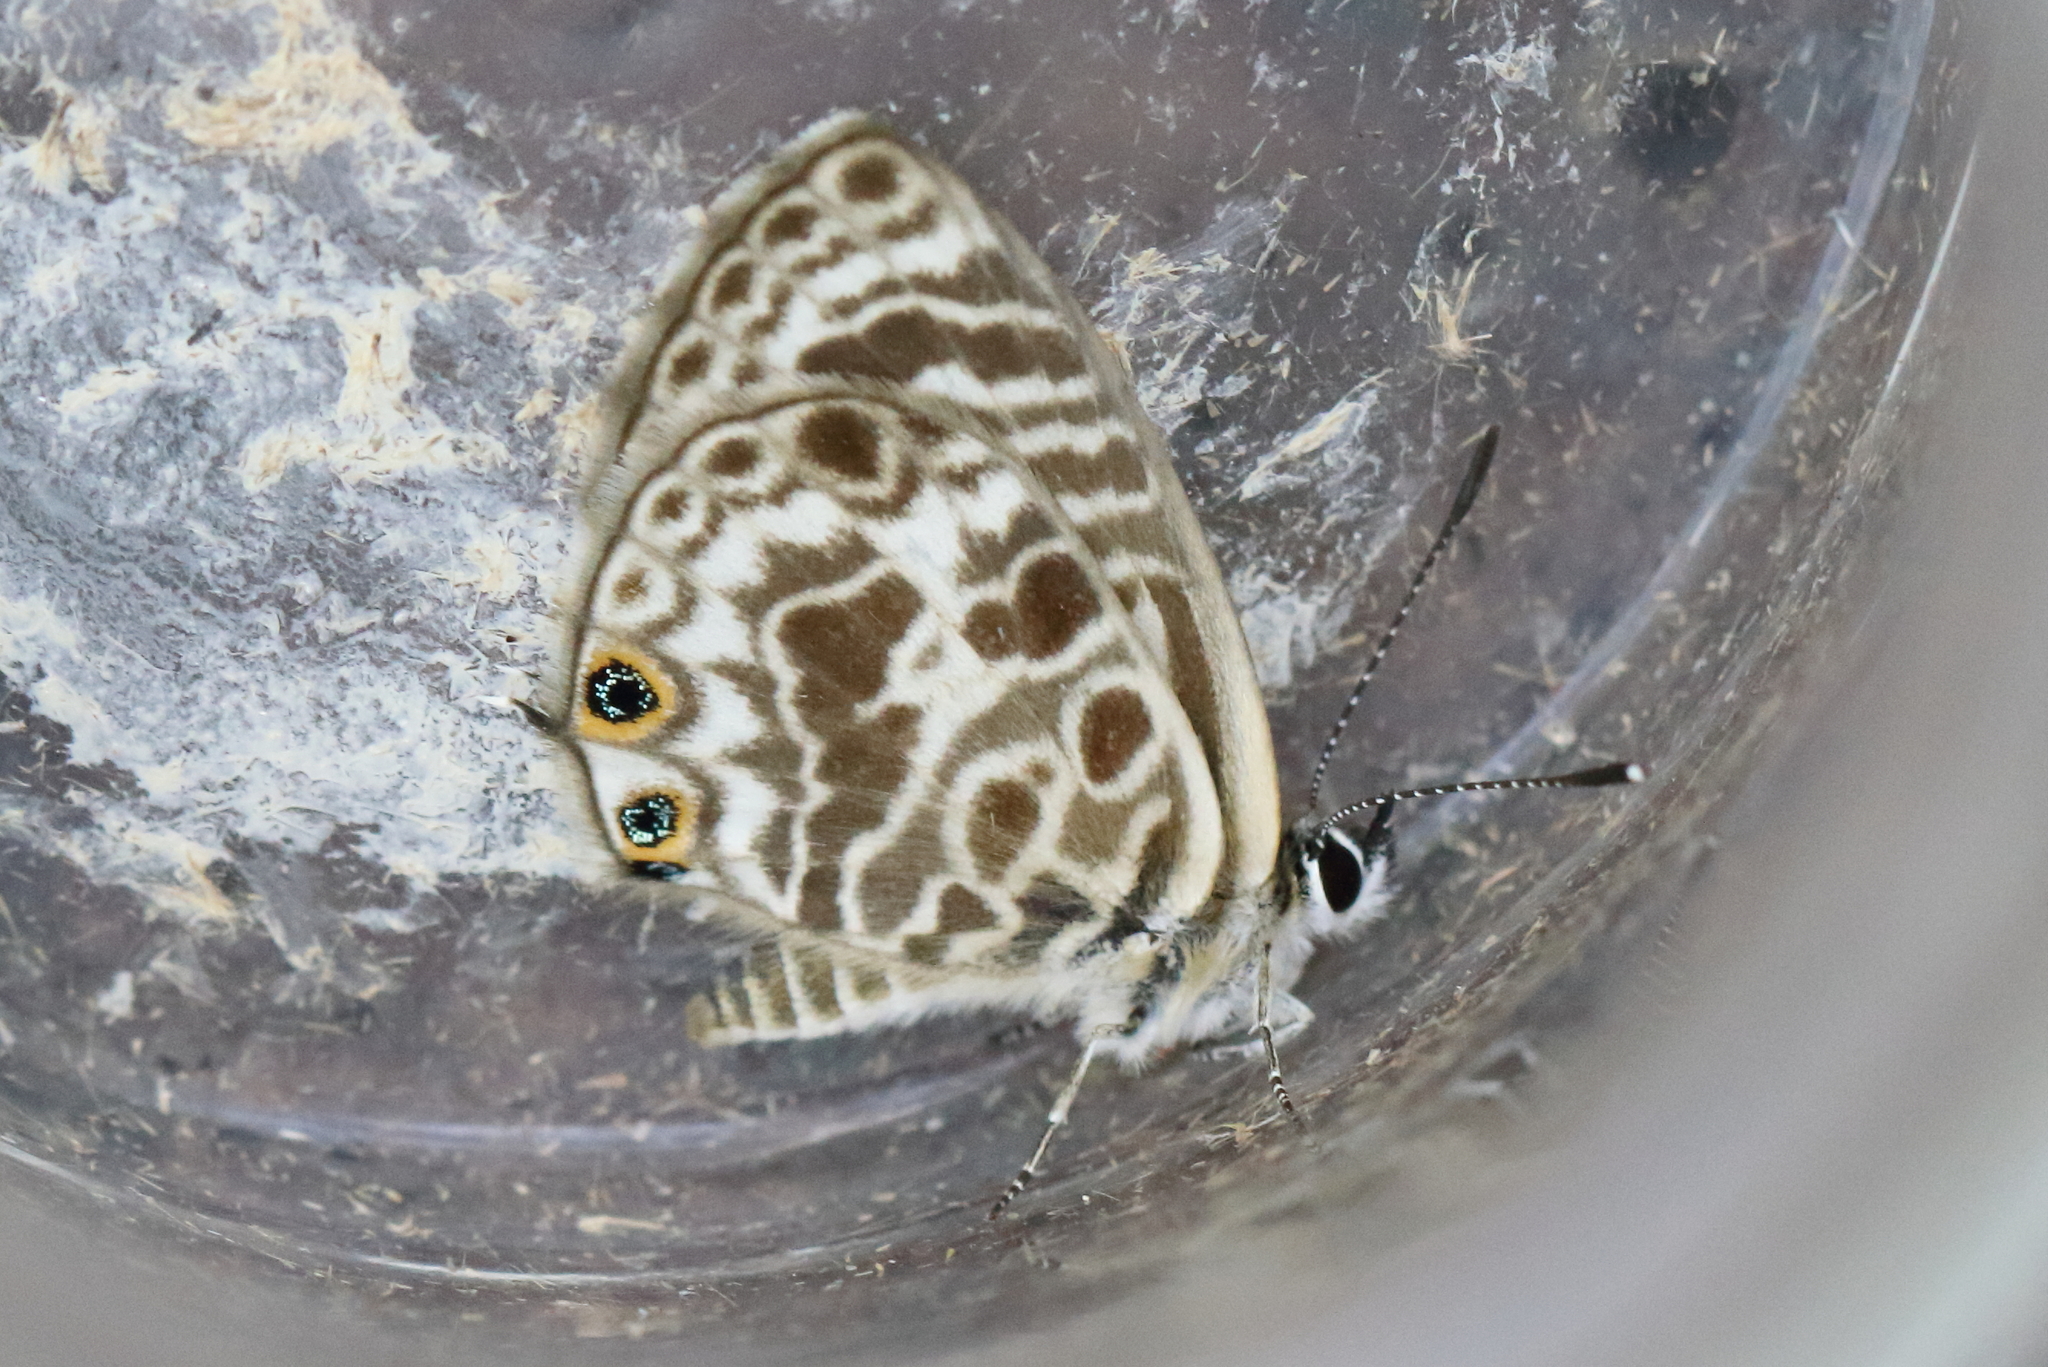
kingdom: Animalia
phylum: Arthropoda
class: Insecta
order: Lepidoptera
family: Lycaenidae
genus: Leptotes
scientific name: Leptotes plinius
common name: Zebra blue
